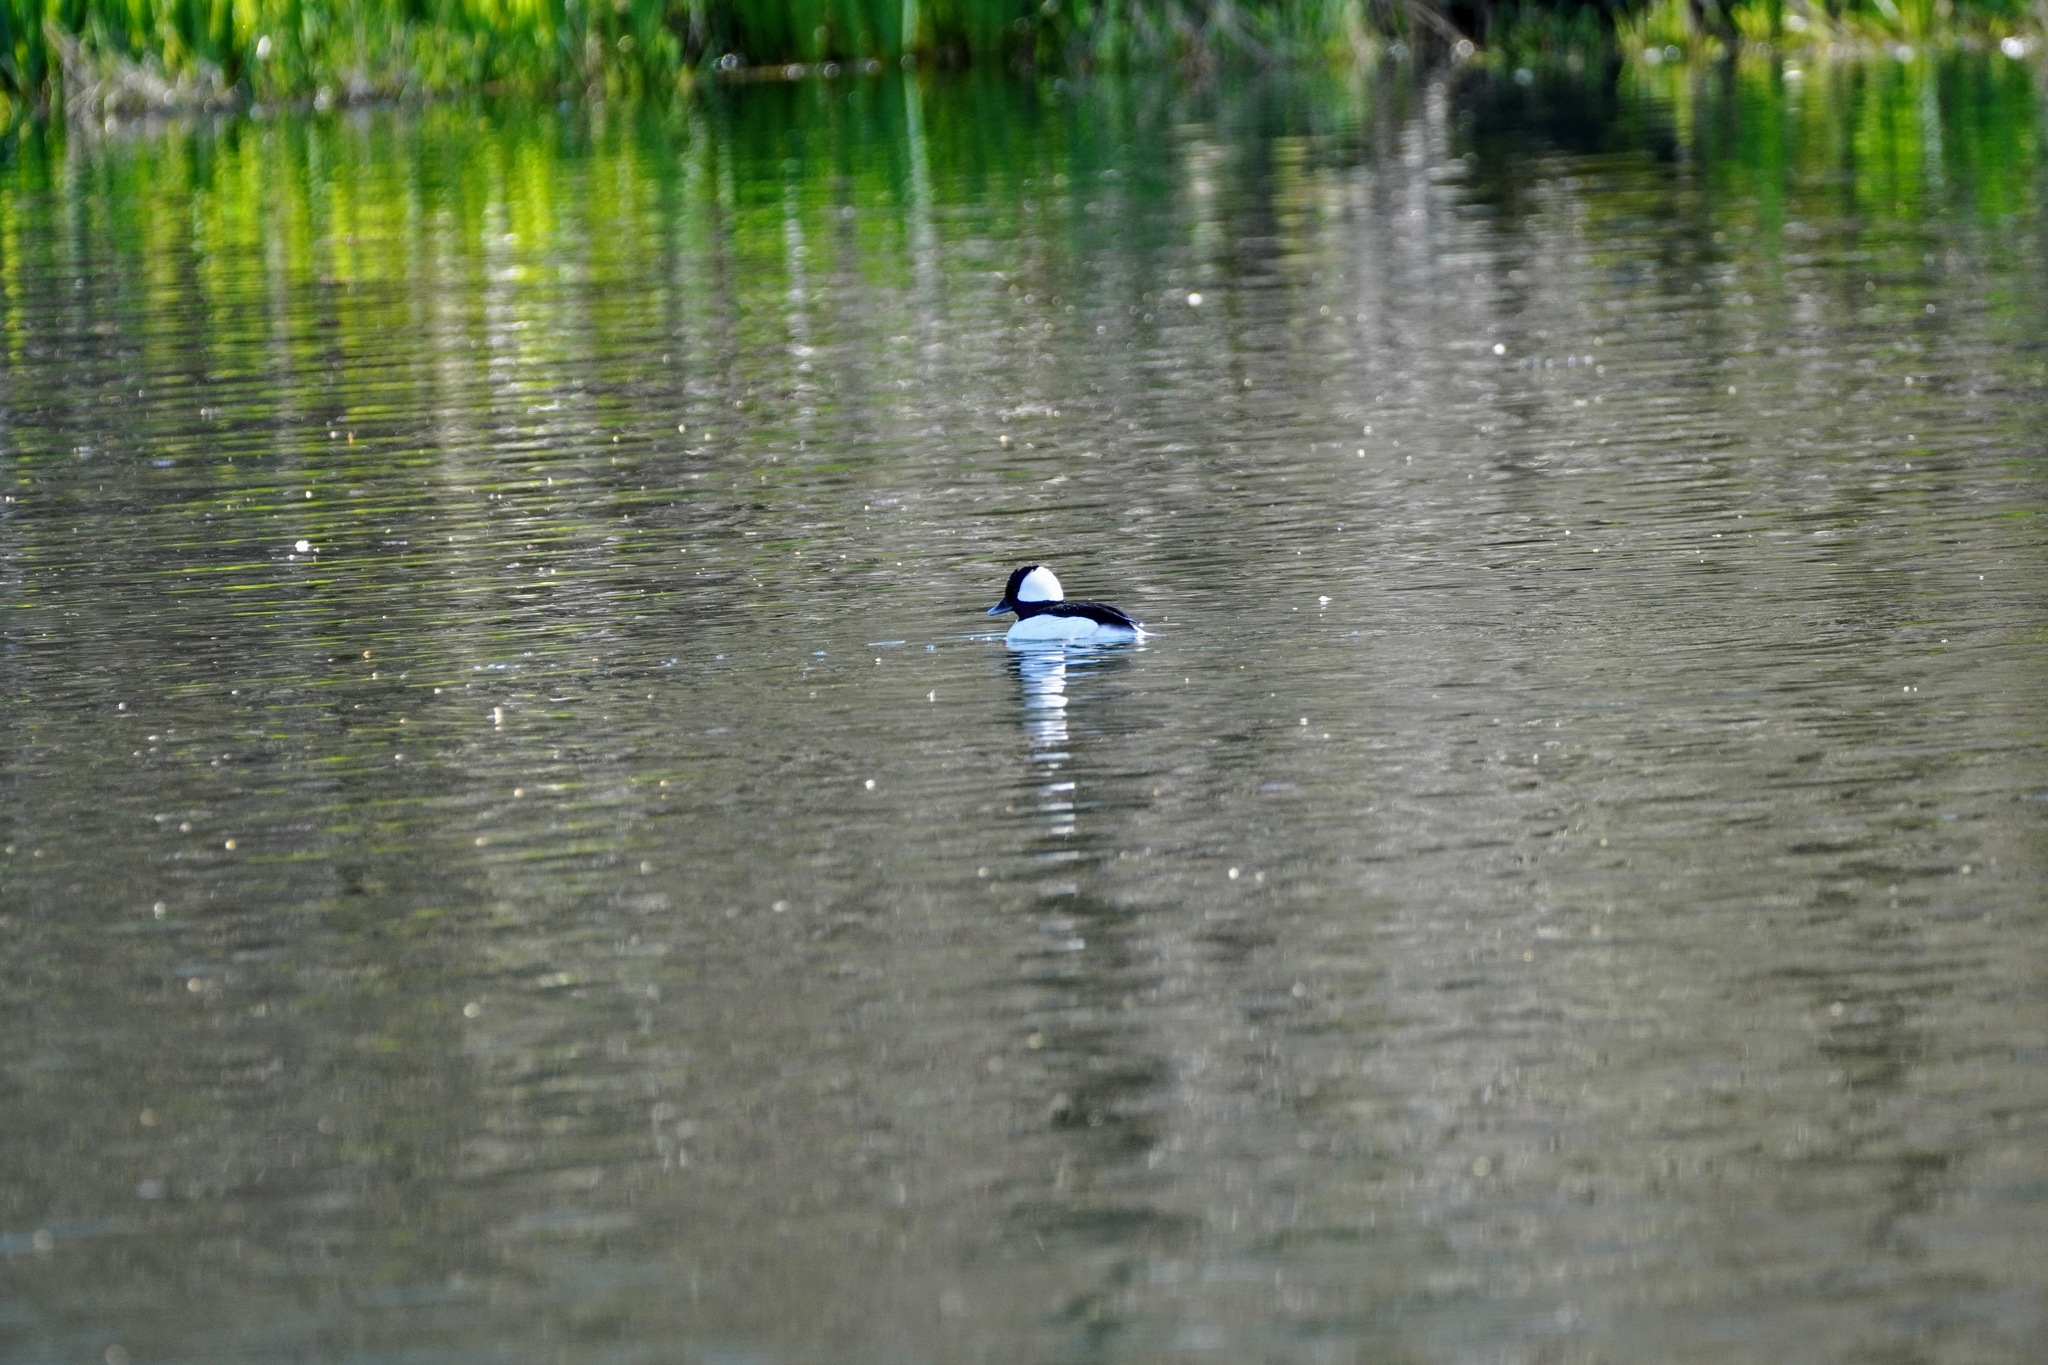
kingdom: Animalia
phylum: Chordata
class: Aves
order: Anseriformes
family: Anatidae
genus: Bucephala
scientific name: Bucephala albeola
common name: Bufflehead
